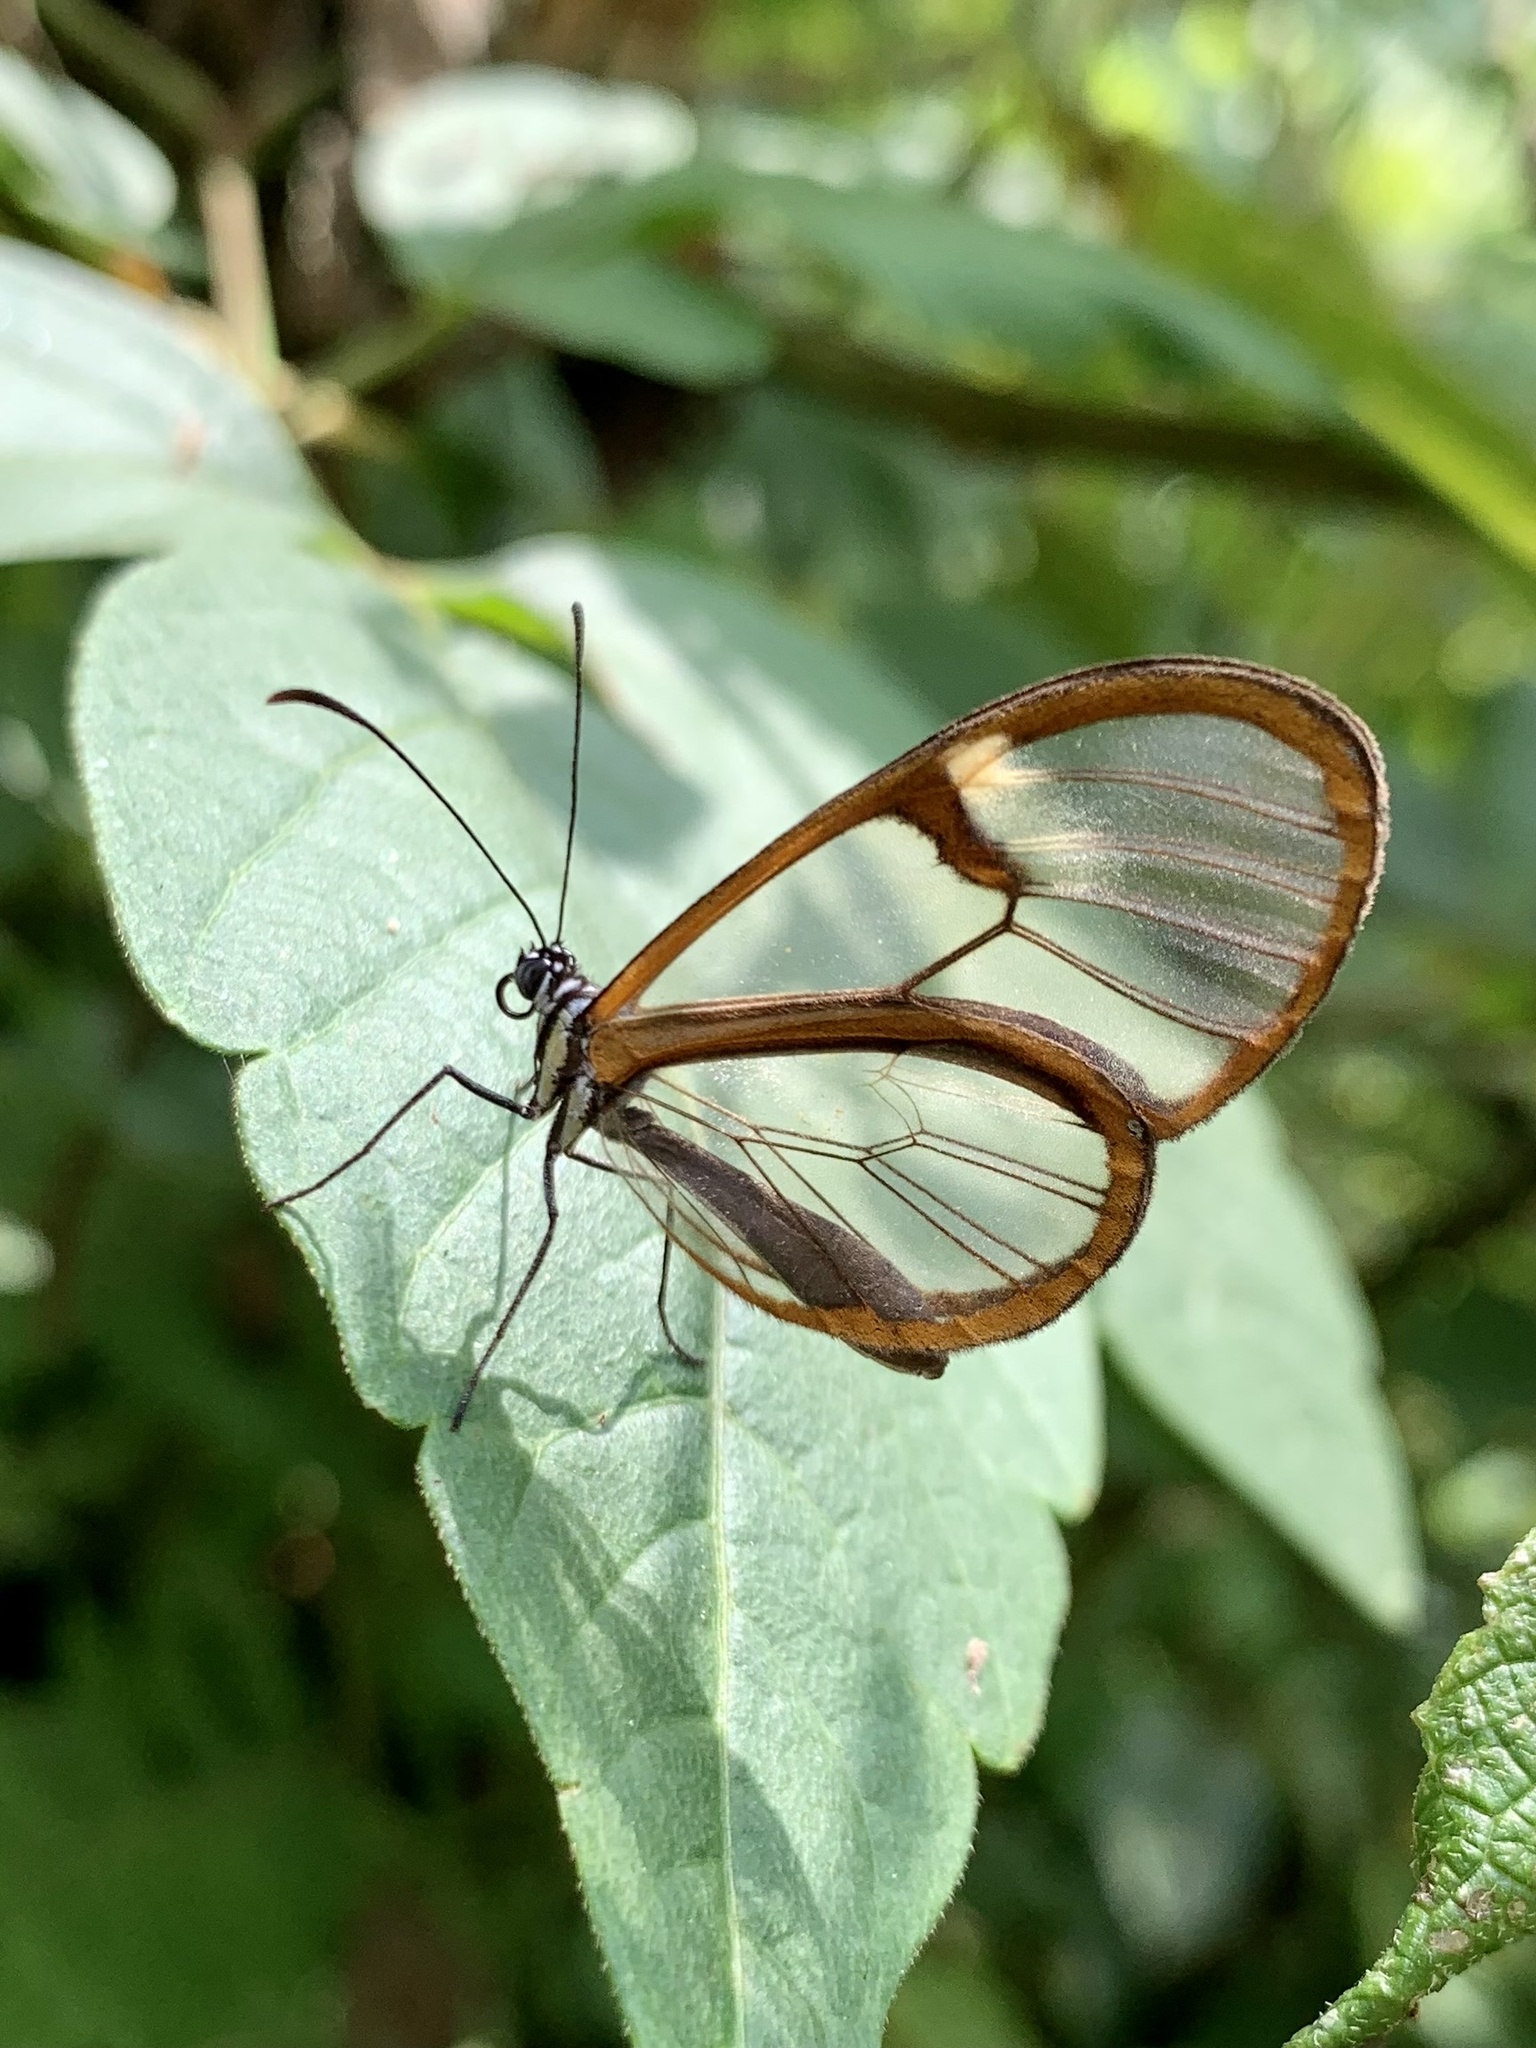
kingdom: Animalia
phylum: Arthropoda
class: Insecta
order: Lepidoptera
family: Nymphalidae
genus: Episcada
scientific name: Episcada salvinia
